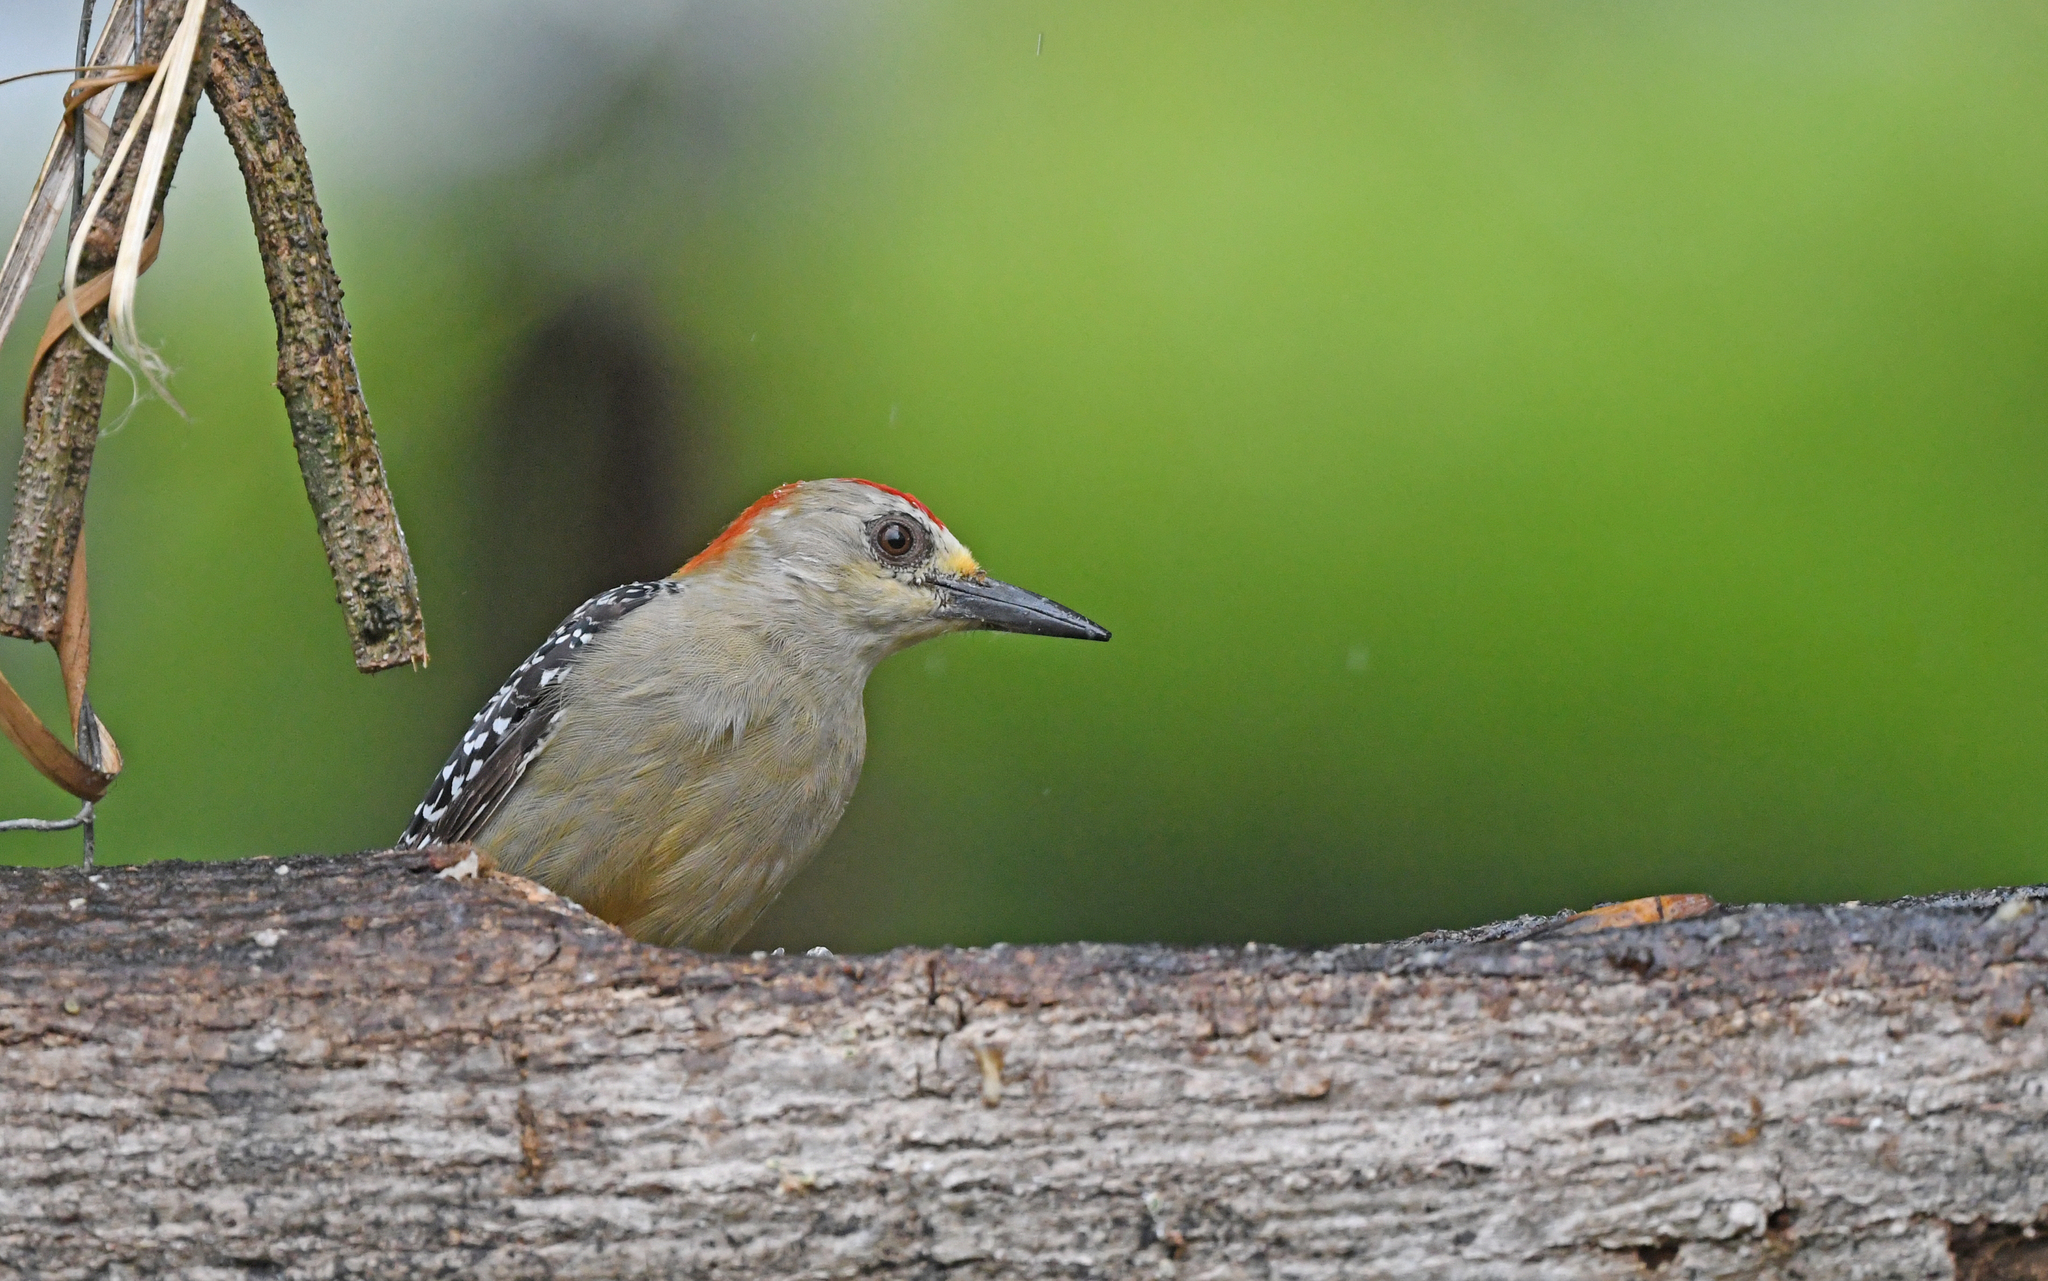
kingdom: Animalia
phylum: Chordata
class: Aves
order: Piciformes
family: Picidae
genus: Melanerpes
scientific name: Melanerpes rubricapillus
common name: Red-crowned woodpecker
